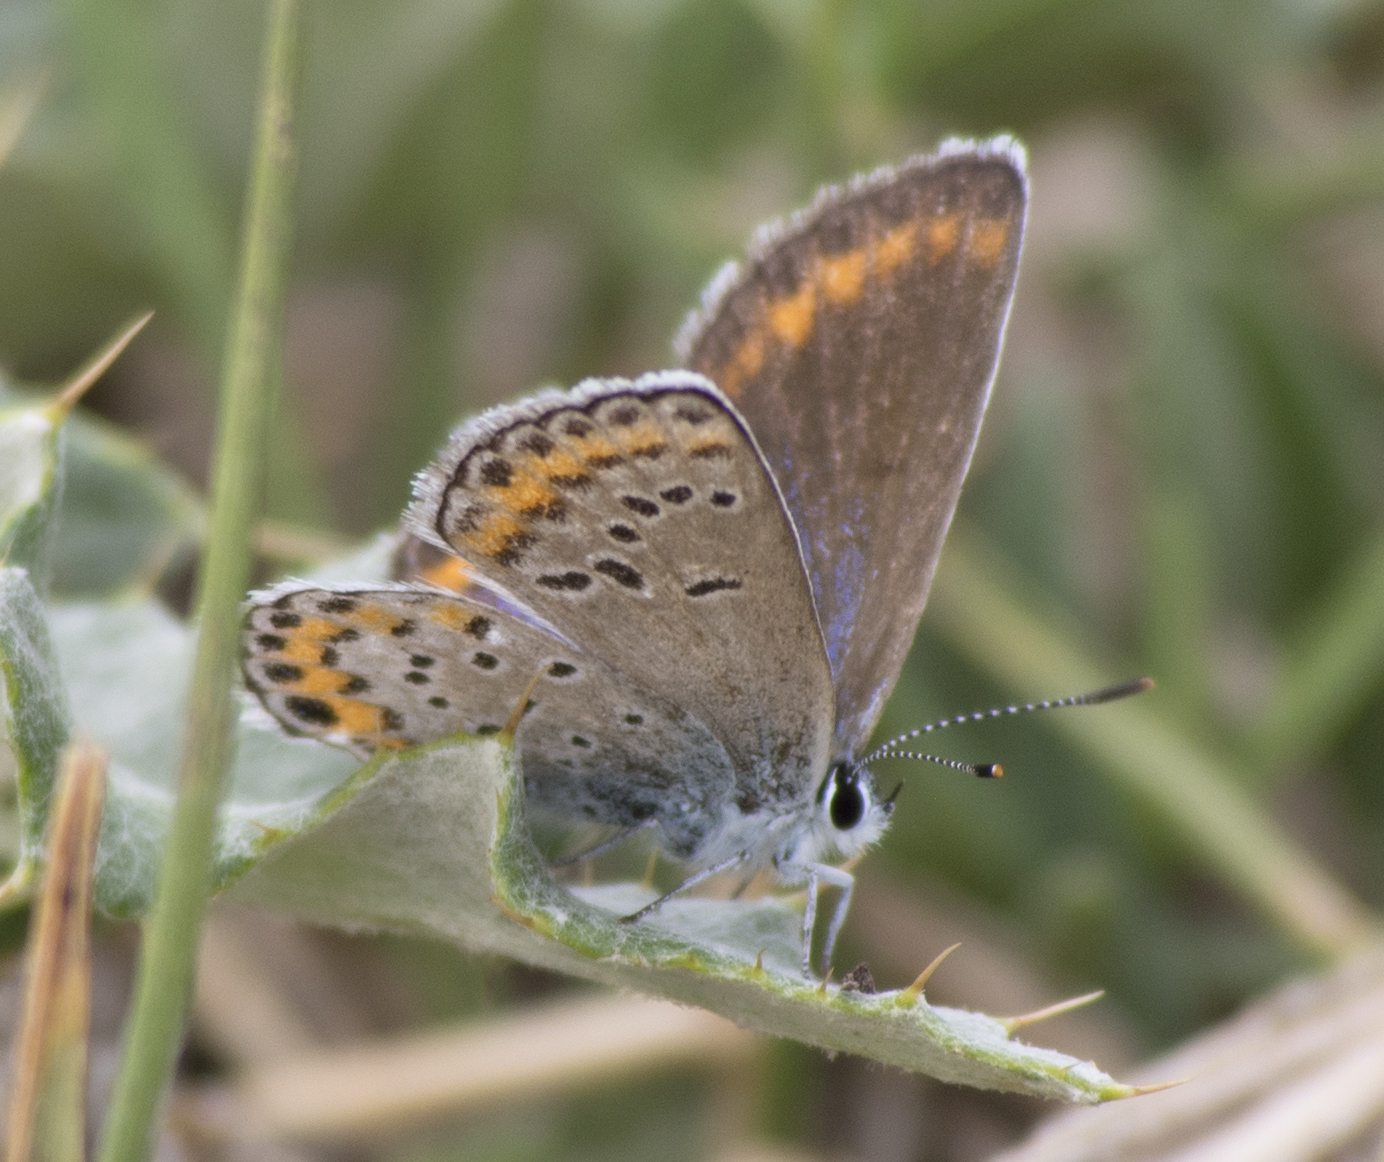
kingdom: Animalia
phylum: Arthropoda
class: Insecta
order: Lepidoptera
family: Lycaenidae
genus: Lycaeides
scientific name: Lycaeides melissa
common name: Melissa blue
